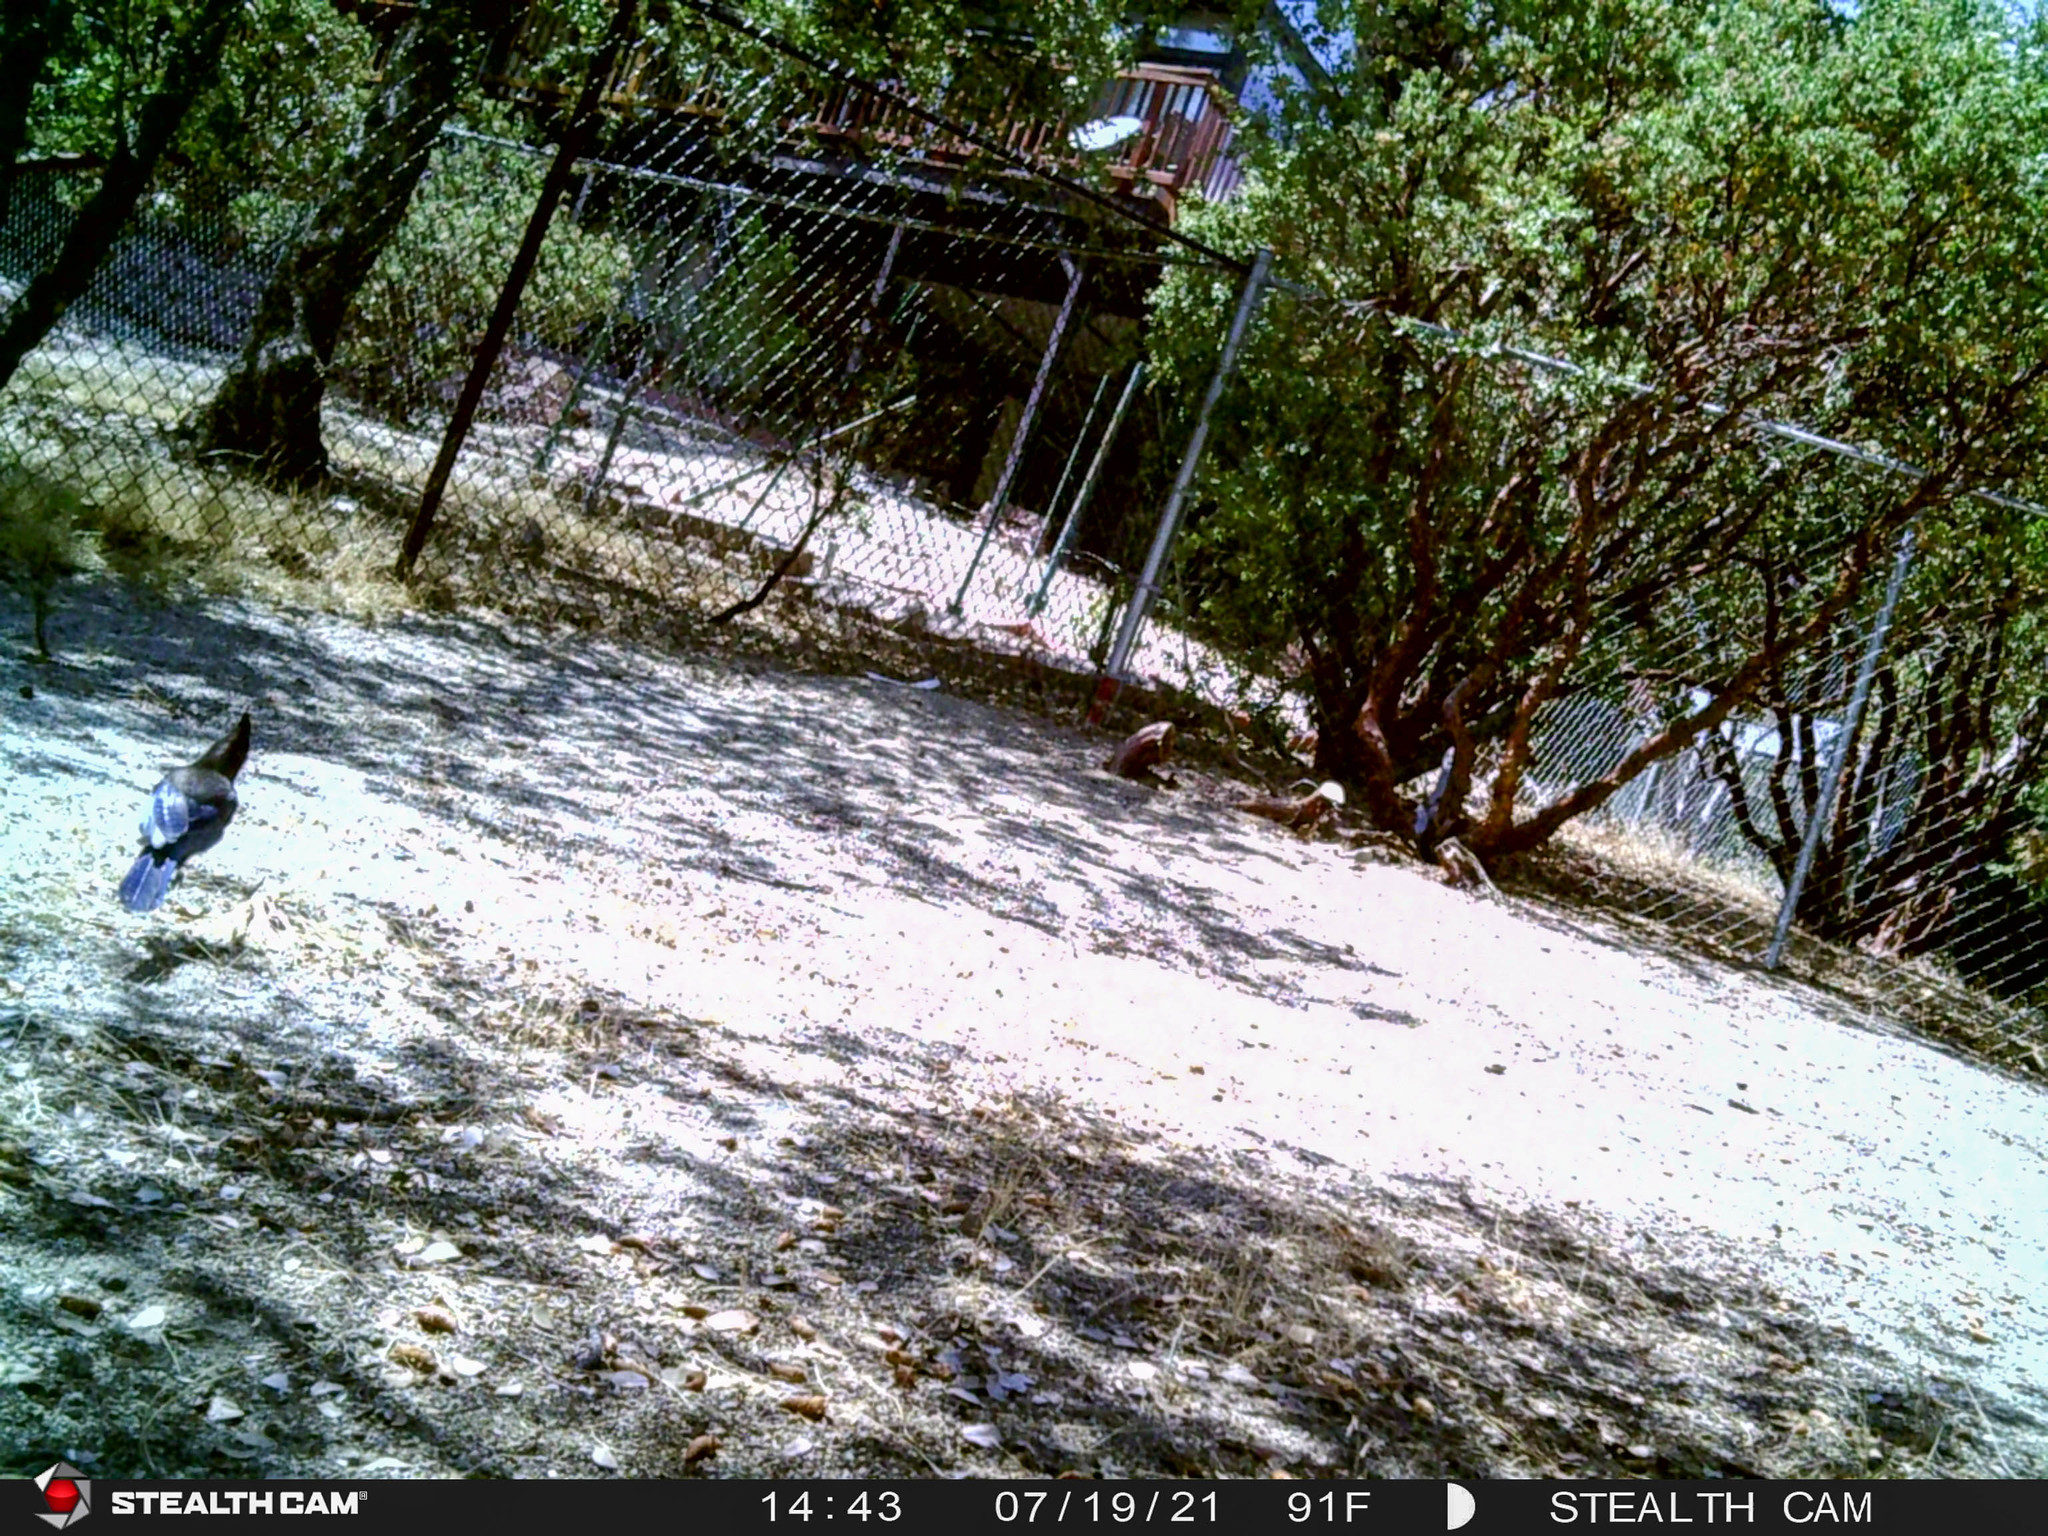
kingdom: Animalia
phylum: Chordata
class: Aves
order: Passeriformes
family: Corvidae
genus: Cyanocitta
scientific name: Cyanocitta stelleri
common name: Steller's jay
